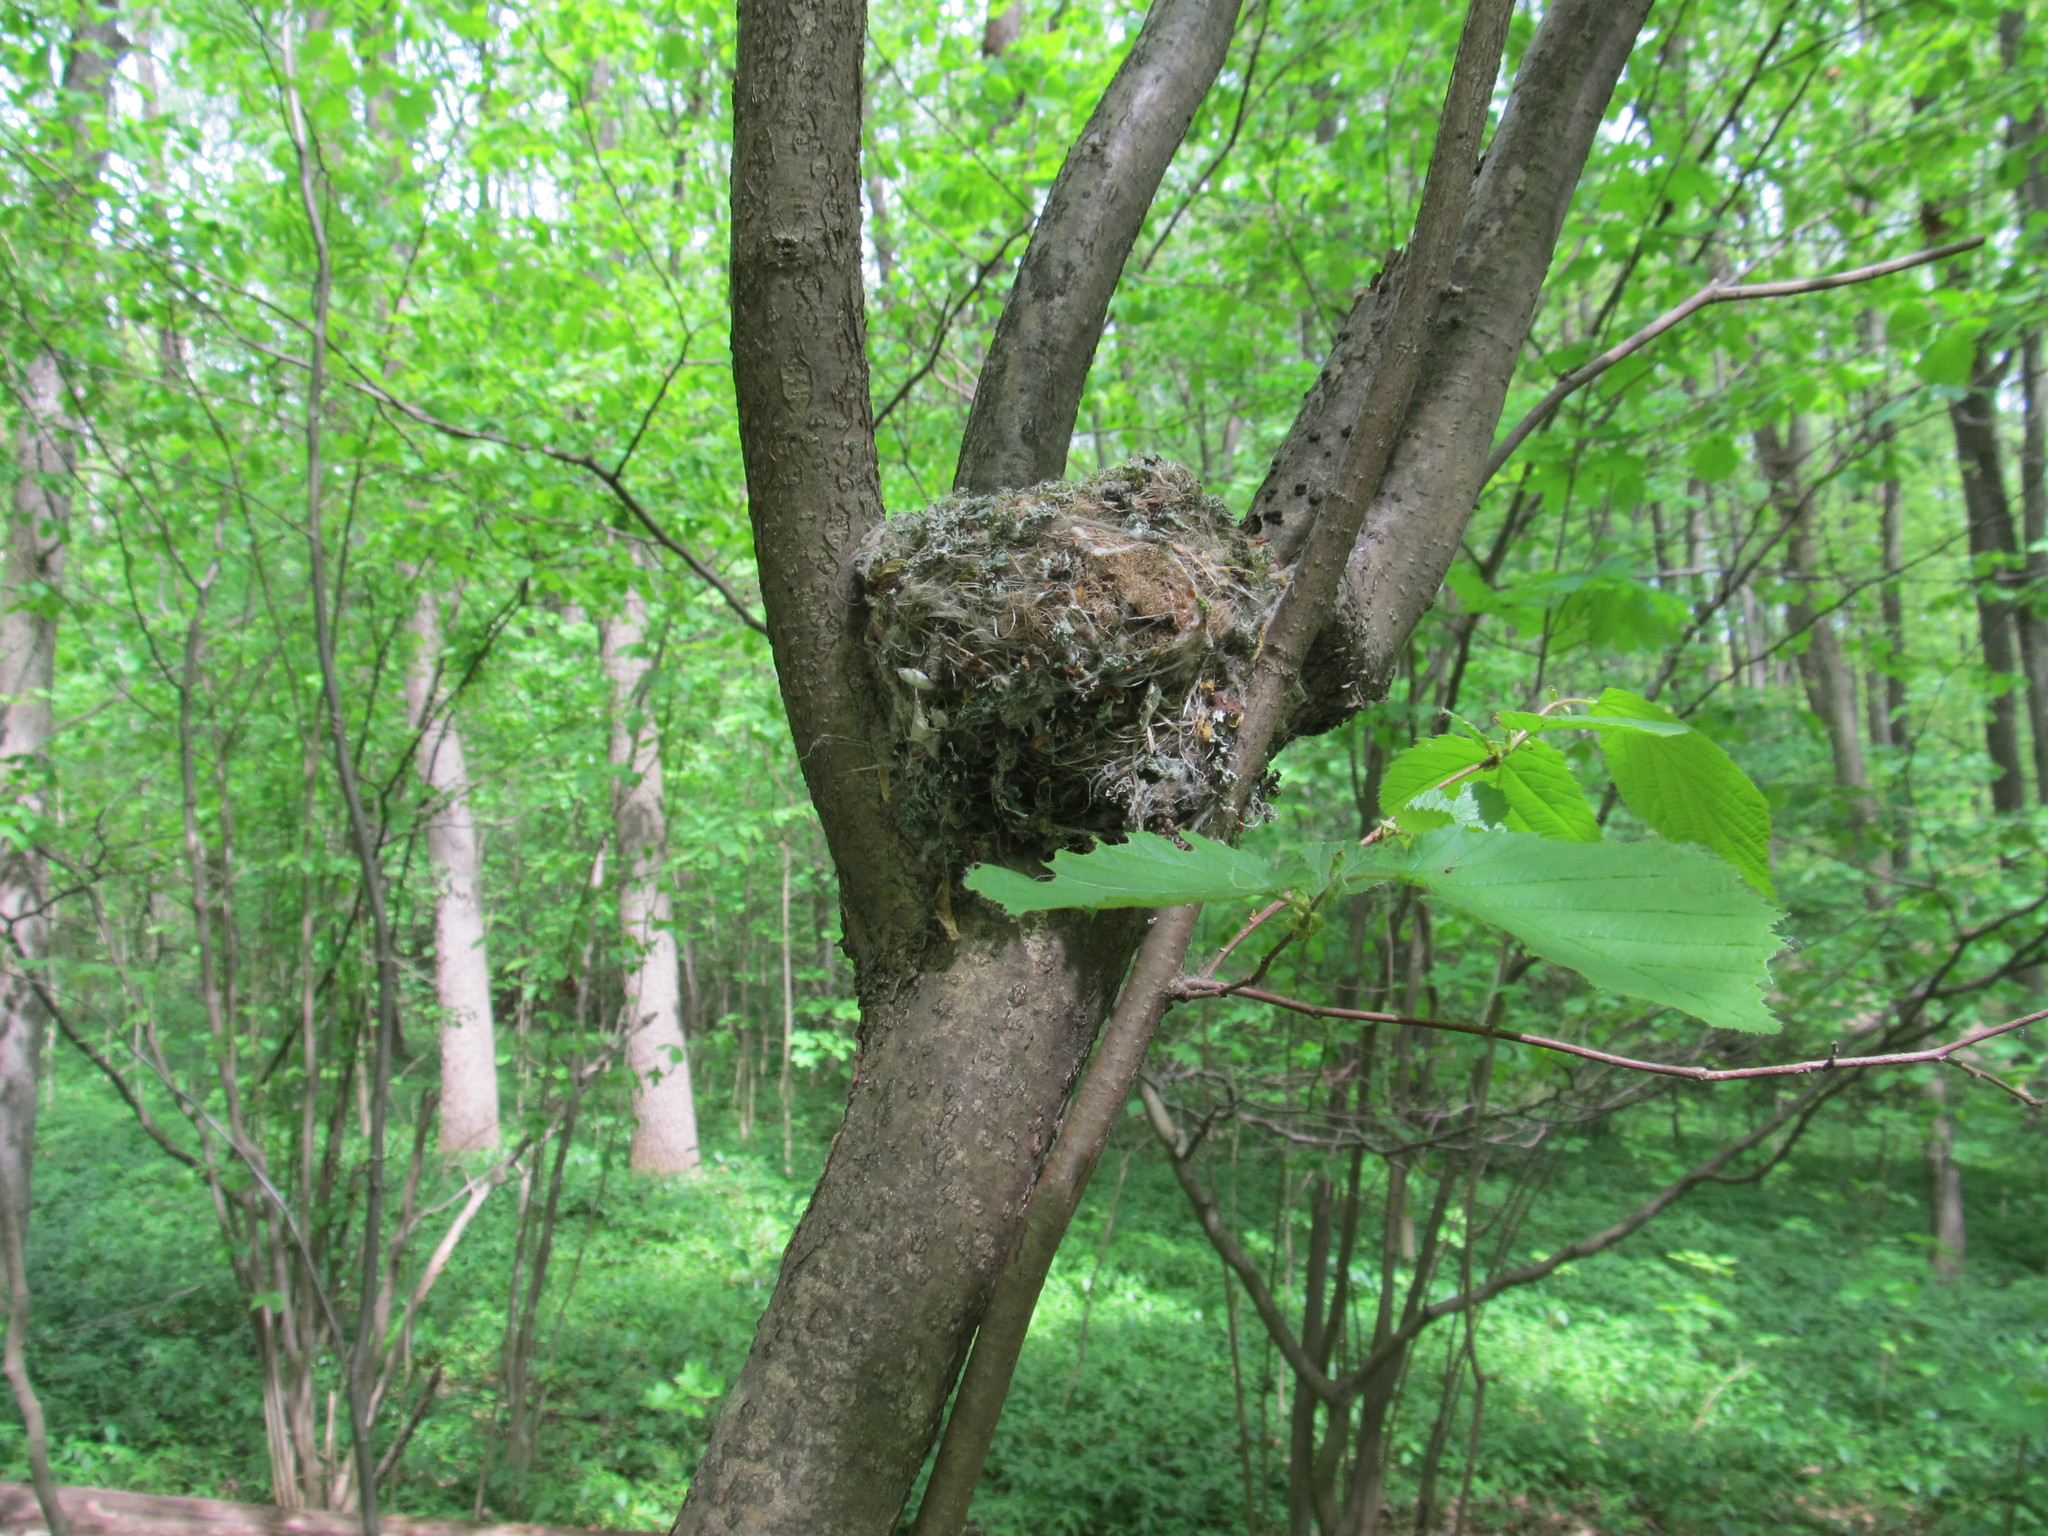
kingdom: Animalia
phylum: Chordata
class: Aves
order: Passeriformes
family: Fringillidae
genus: Fringilla
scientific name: Fringilla coelebs
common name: Common chaffinch
